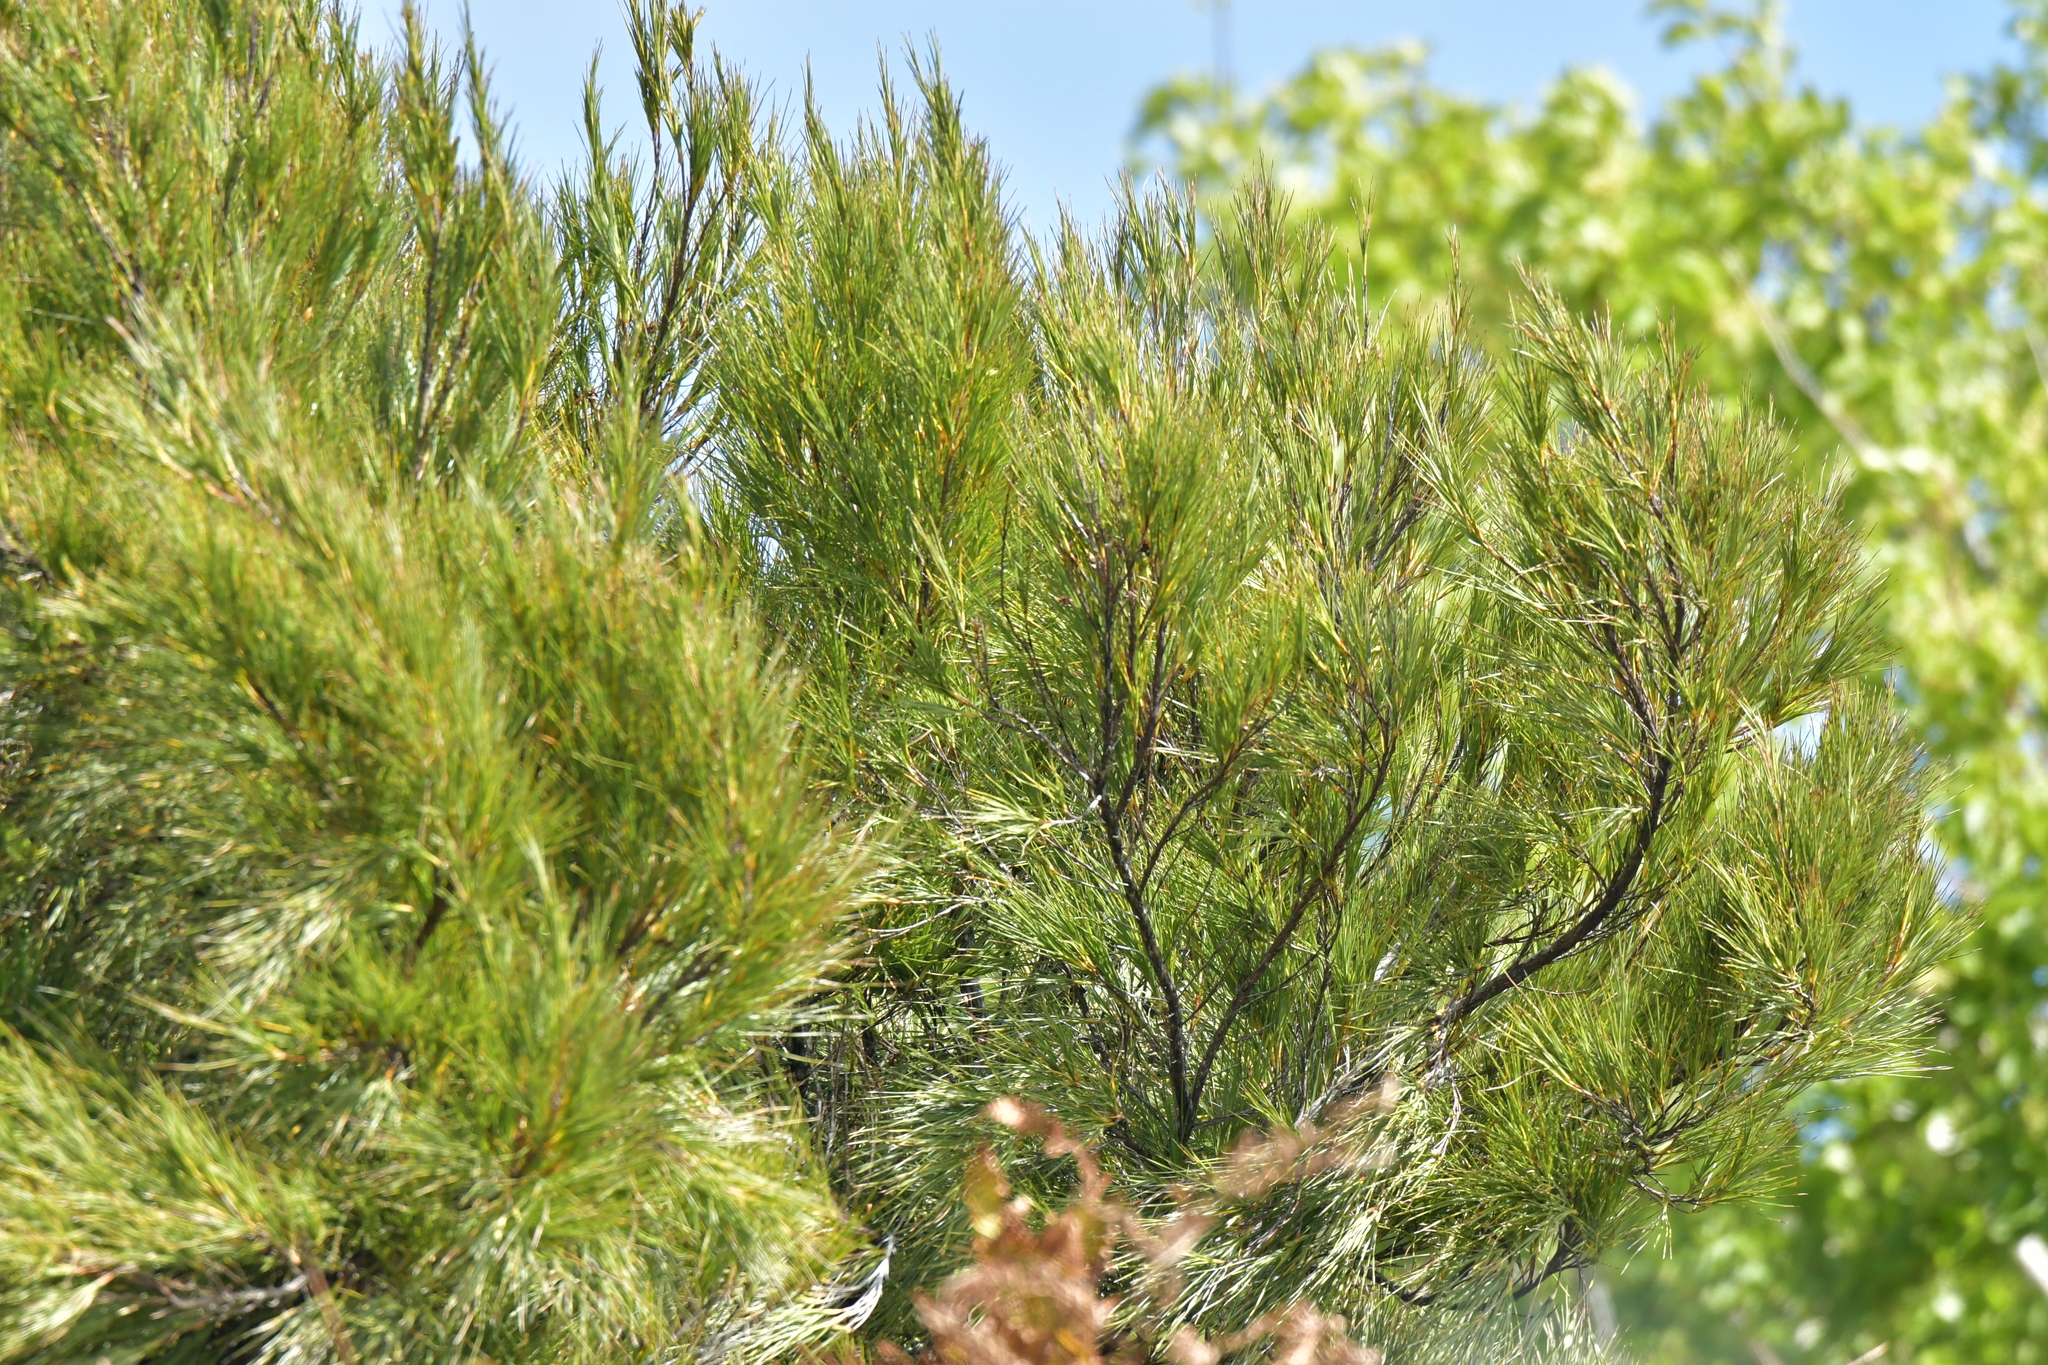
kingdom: Plantae
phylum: Tracheophyta
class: Magnoliopsida
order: Ericales
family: Ericaceae
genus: Dracophyllum
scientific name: Dracophyllum arboreum
